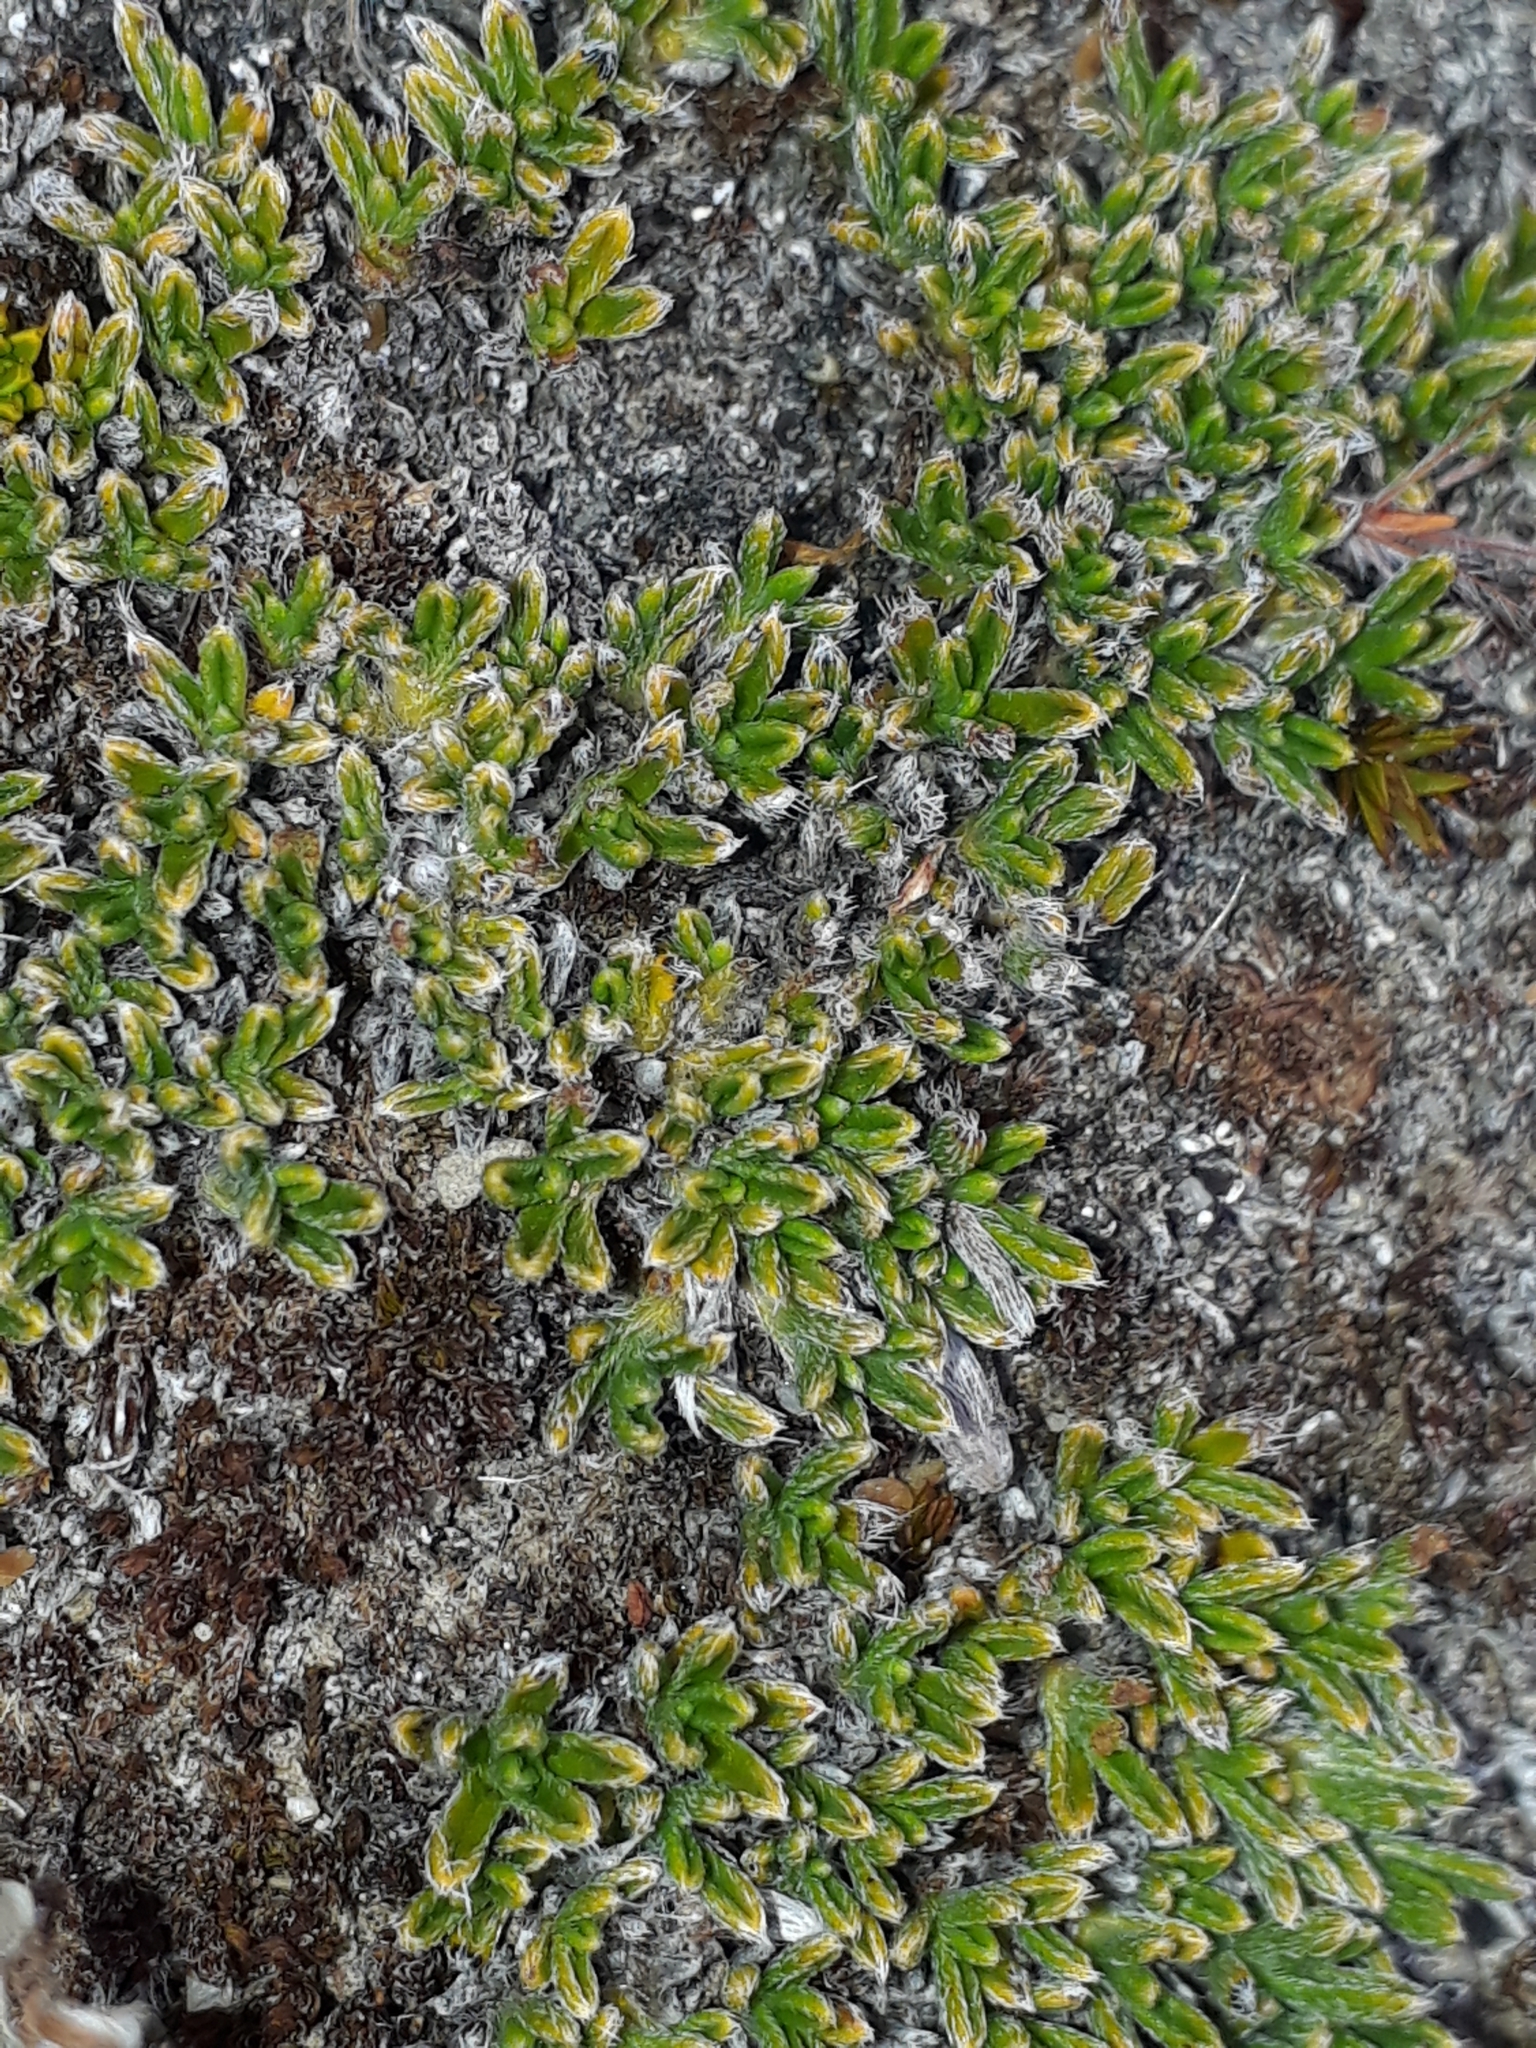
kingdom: Plantae
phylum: Tracheophyta
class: Magnoliopsida
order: Boraginales
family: Boraginaceae
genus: Myosotis
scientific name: Myosotis uniflora
